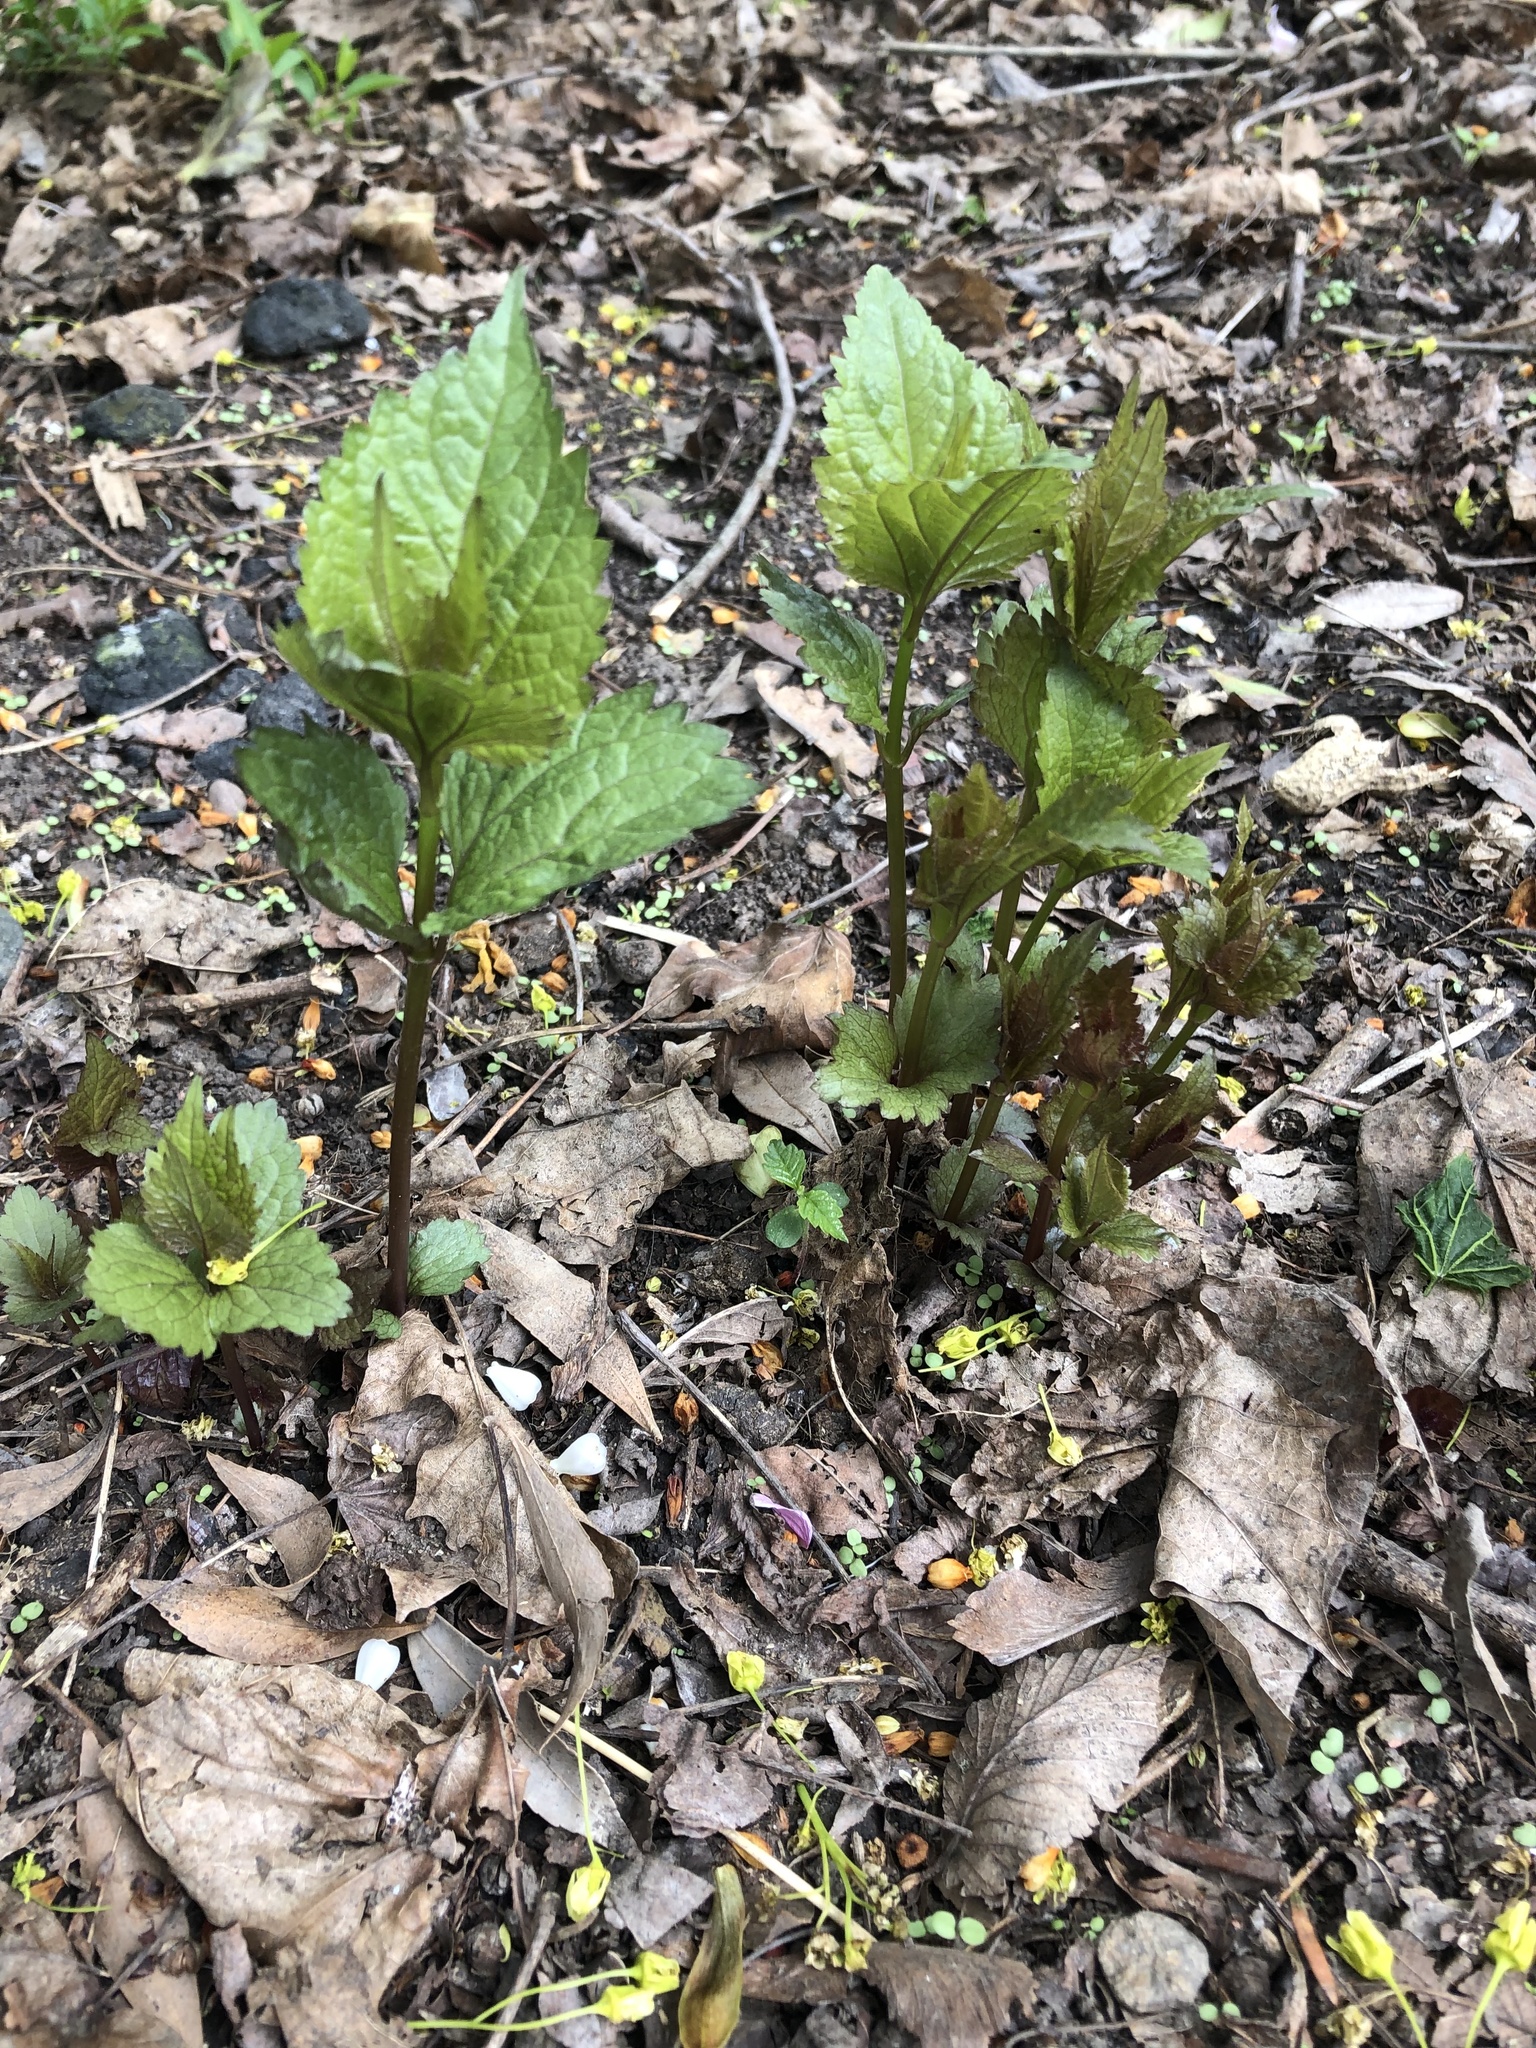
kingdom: Plantae
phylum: Tracheophyta
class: Magnoliopsida
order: Asterales
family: Asteraceae
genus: Ageratina
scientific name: Ageratina altissima
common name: White snakeroot
